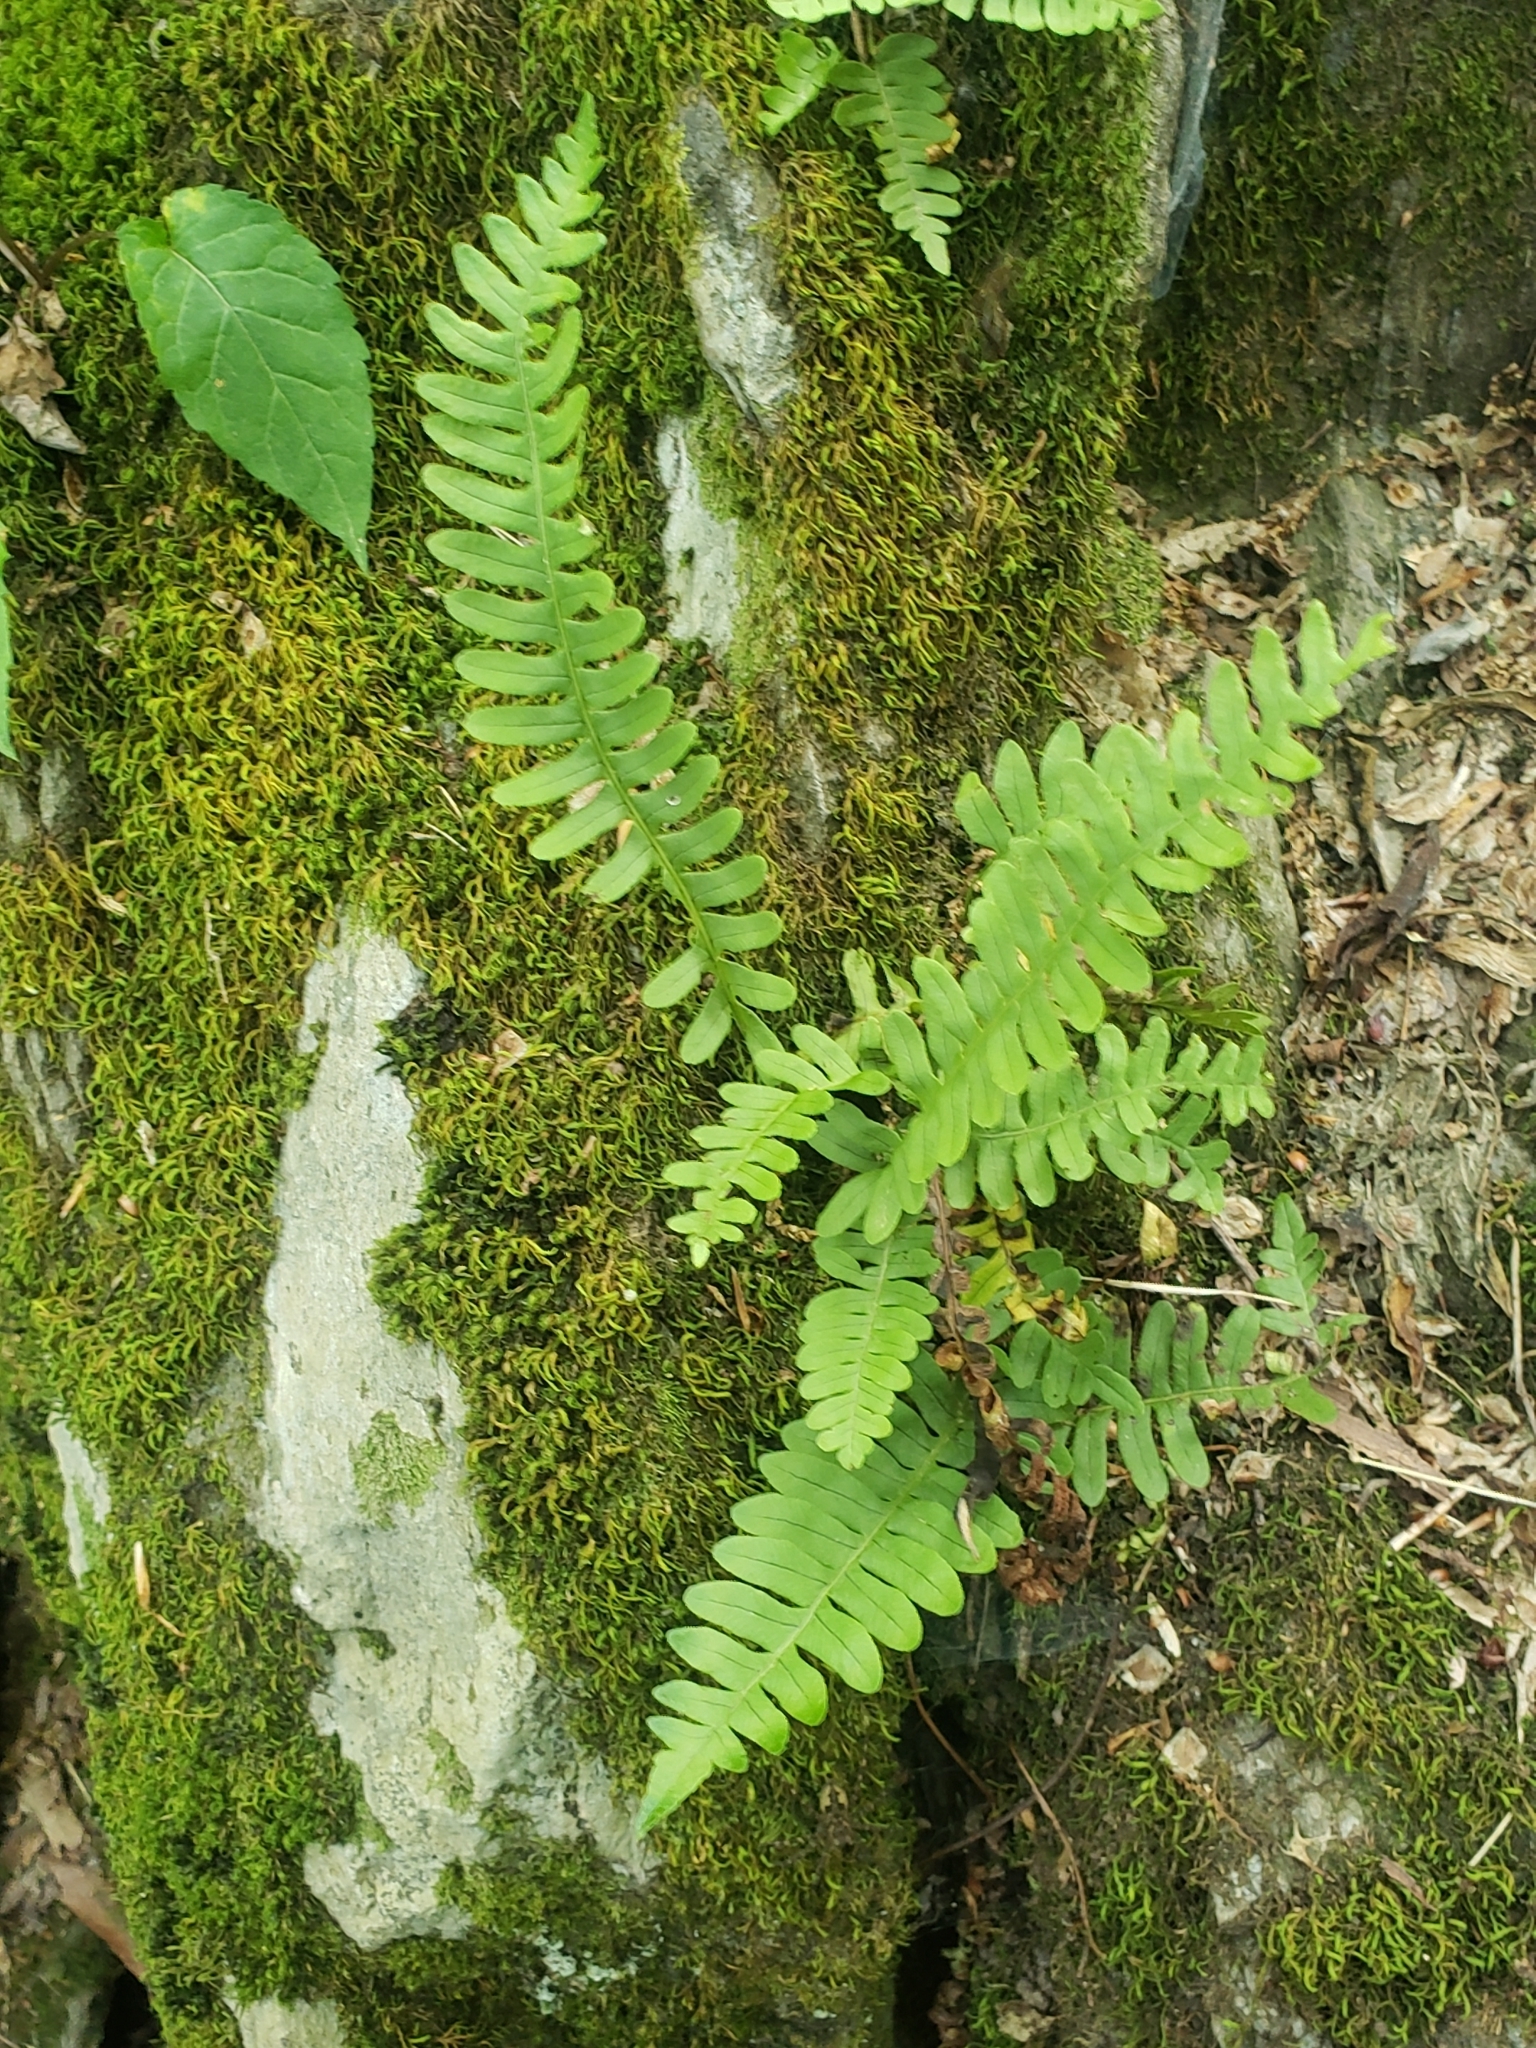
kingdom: Plantae
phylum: Tracheophyta
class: Polypodiopsida
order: Polypodiales
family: Polypodiaceae
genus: Polypodium
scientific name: Polypodium virginianum
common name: American wall fern
